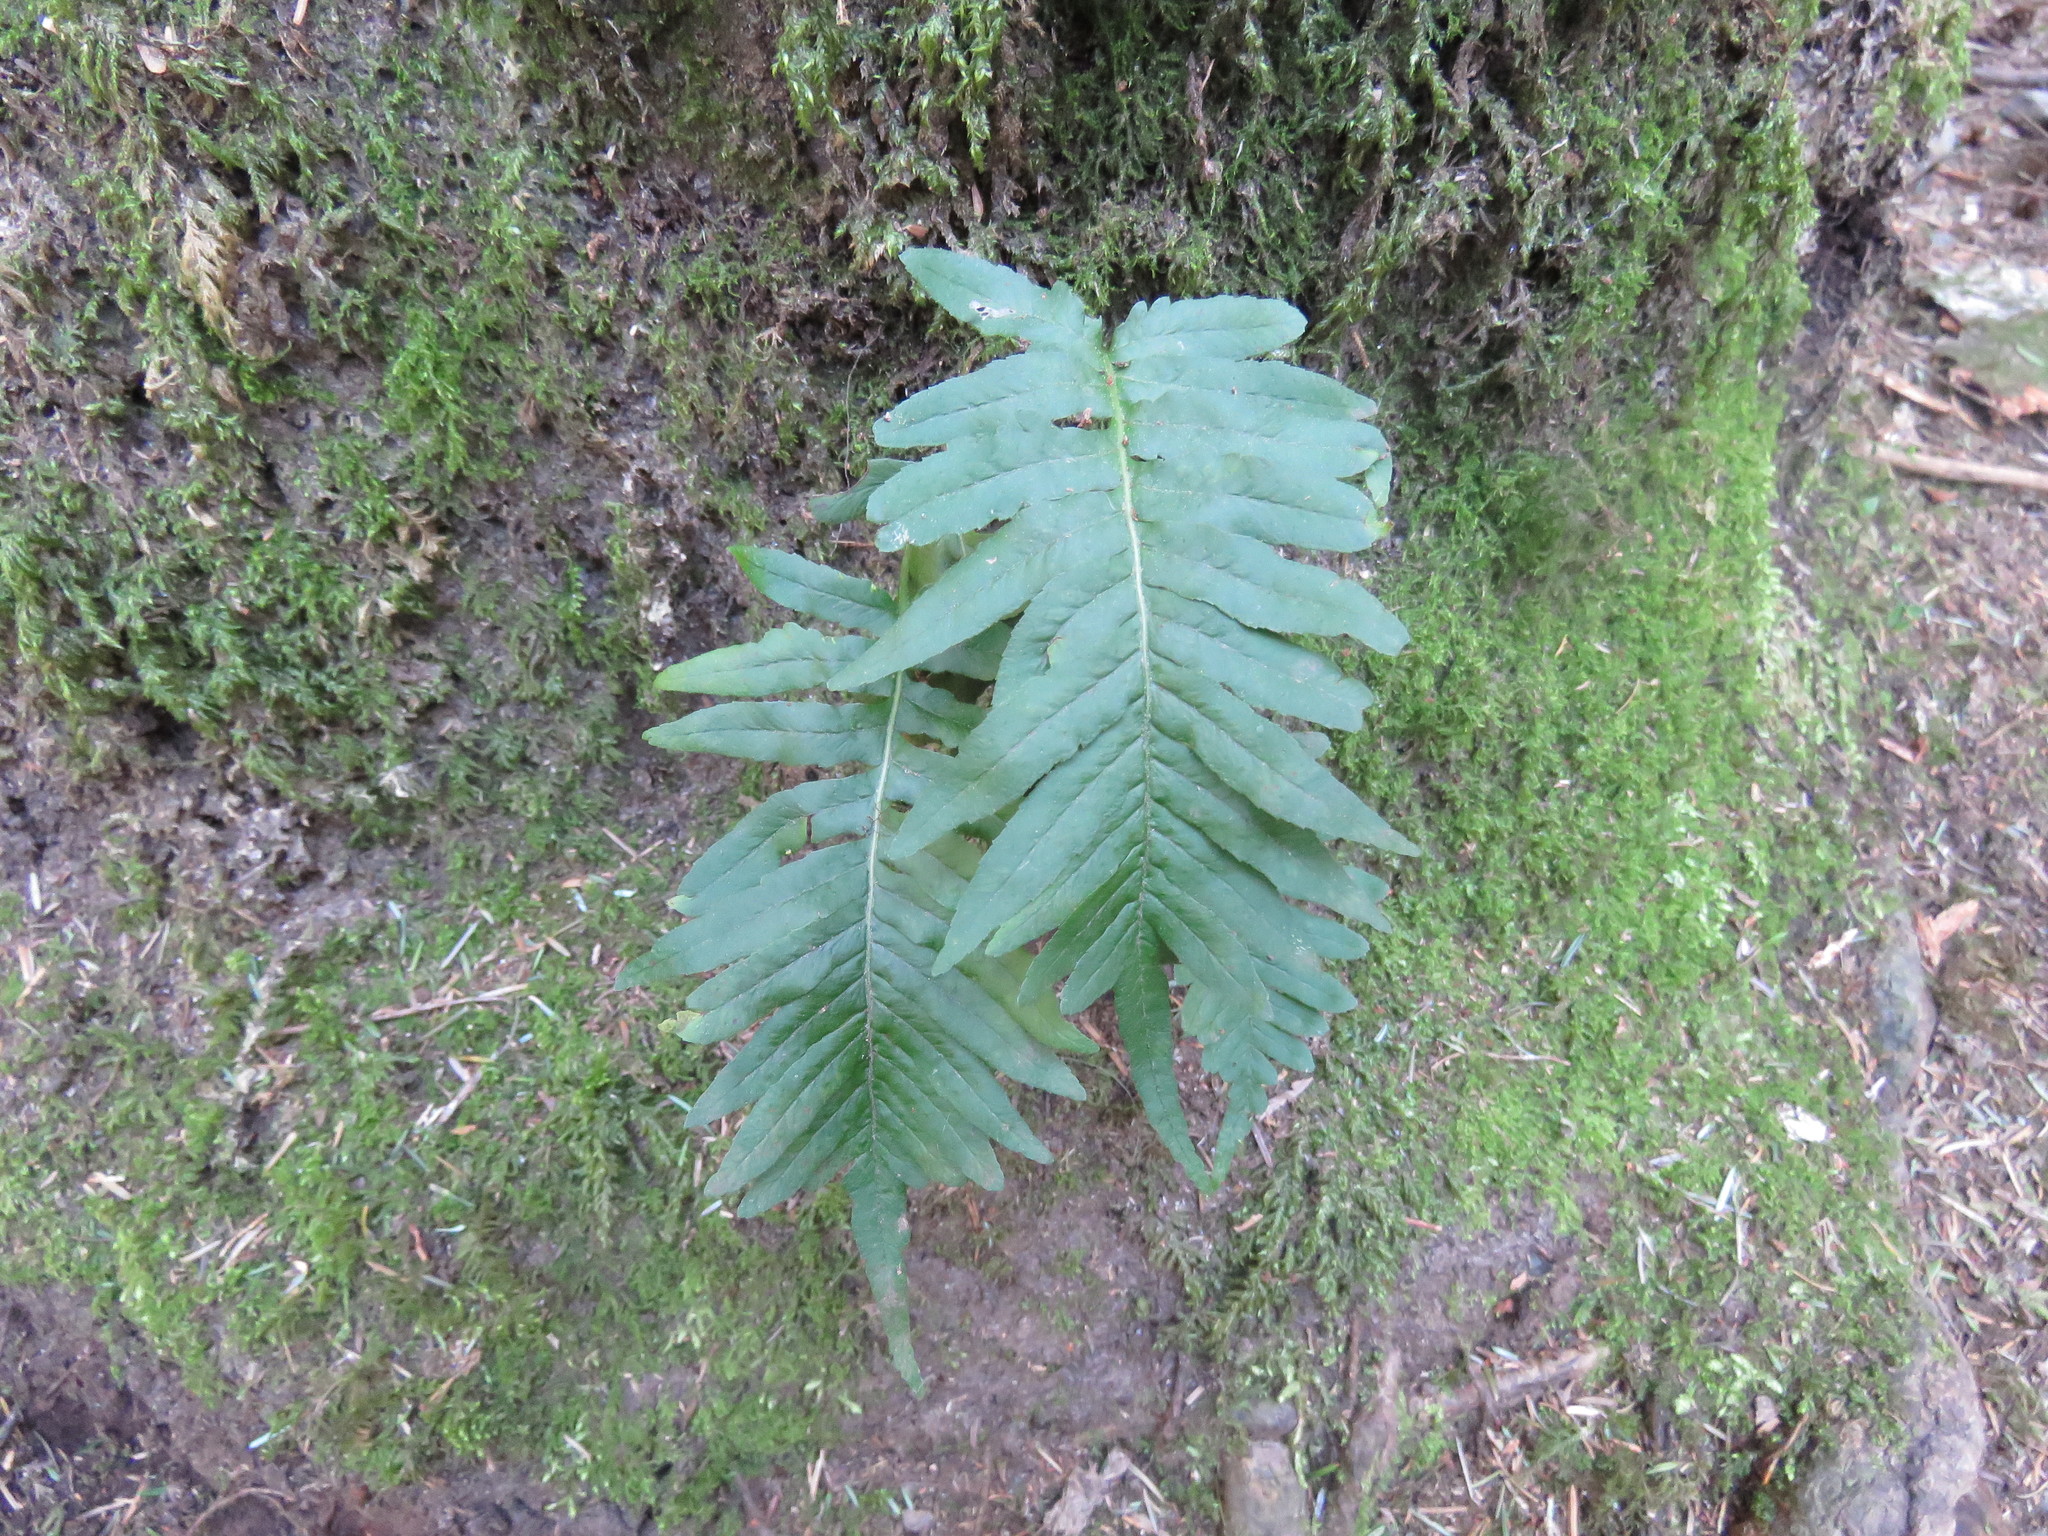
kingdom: Plantae
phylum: Tracheophyta
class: Polypodiopsida
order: Polypodiales
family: Polypodiaceae
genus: Polypodium
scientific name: Polypodium glycyrrhiza
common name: Licorice fern
